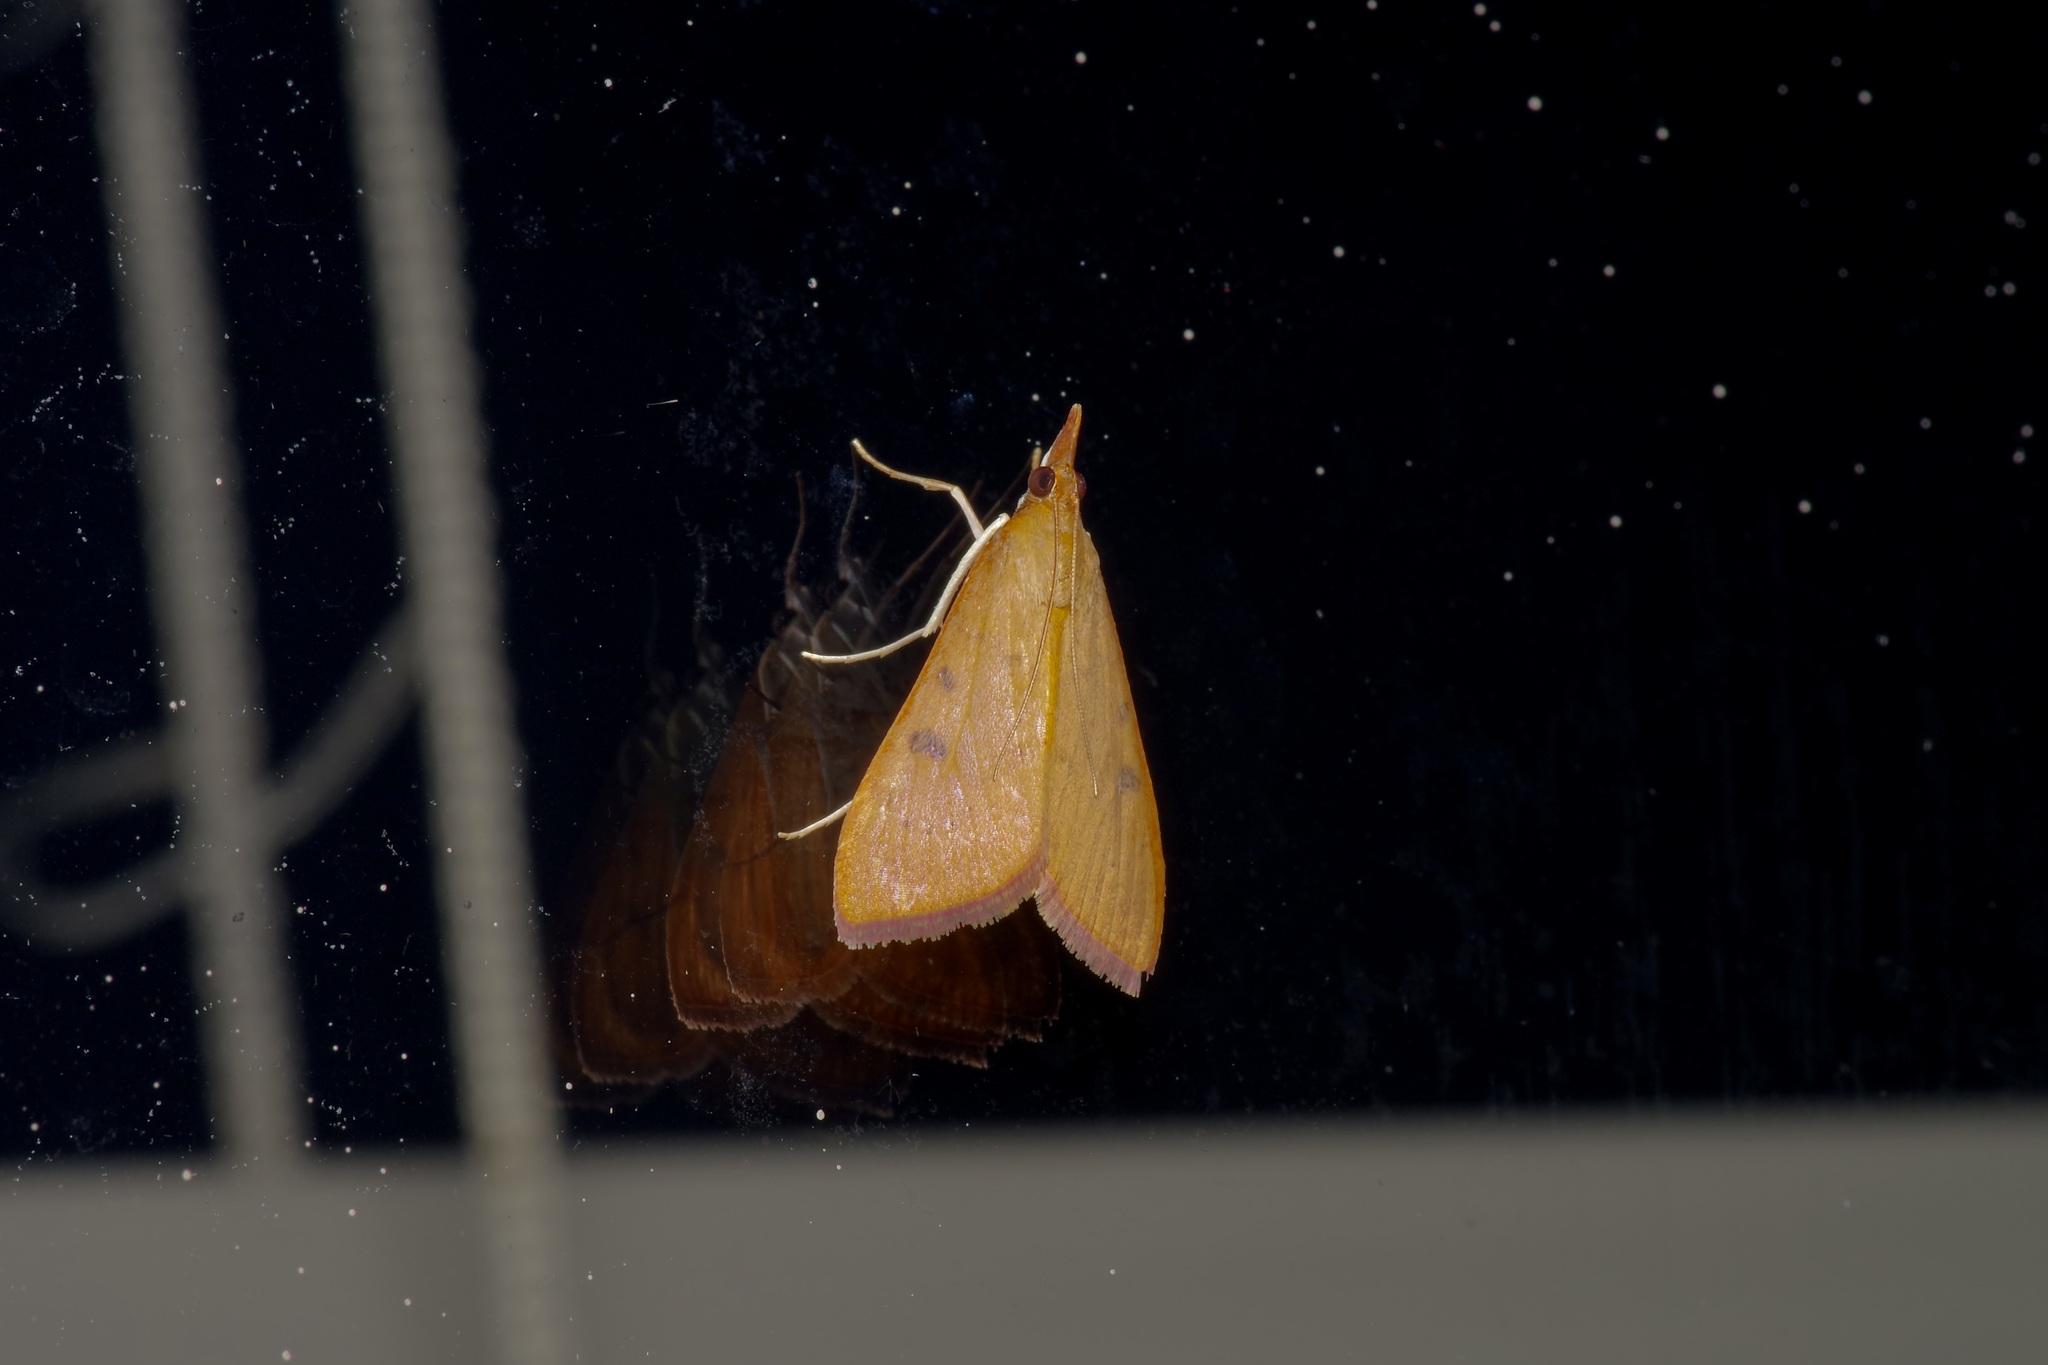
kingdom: Animalia
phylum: Arthropoda
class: Insecta
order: Lepidoptera
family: Crambidae
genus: Uresiphita
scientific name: Uresiphita reversalis
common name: Genista broom moth
